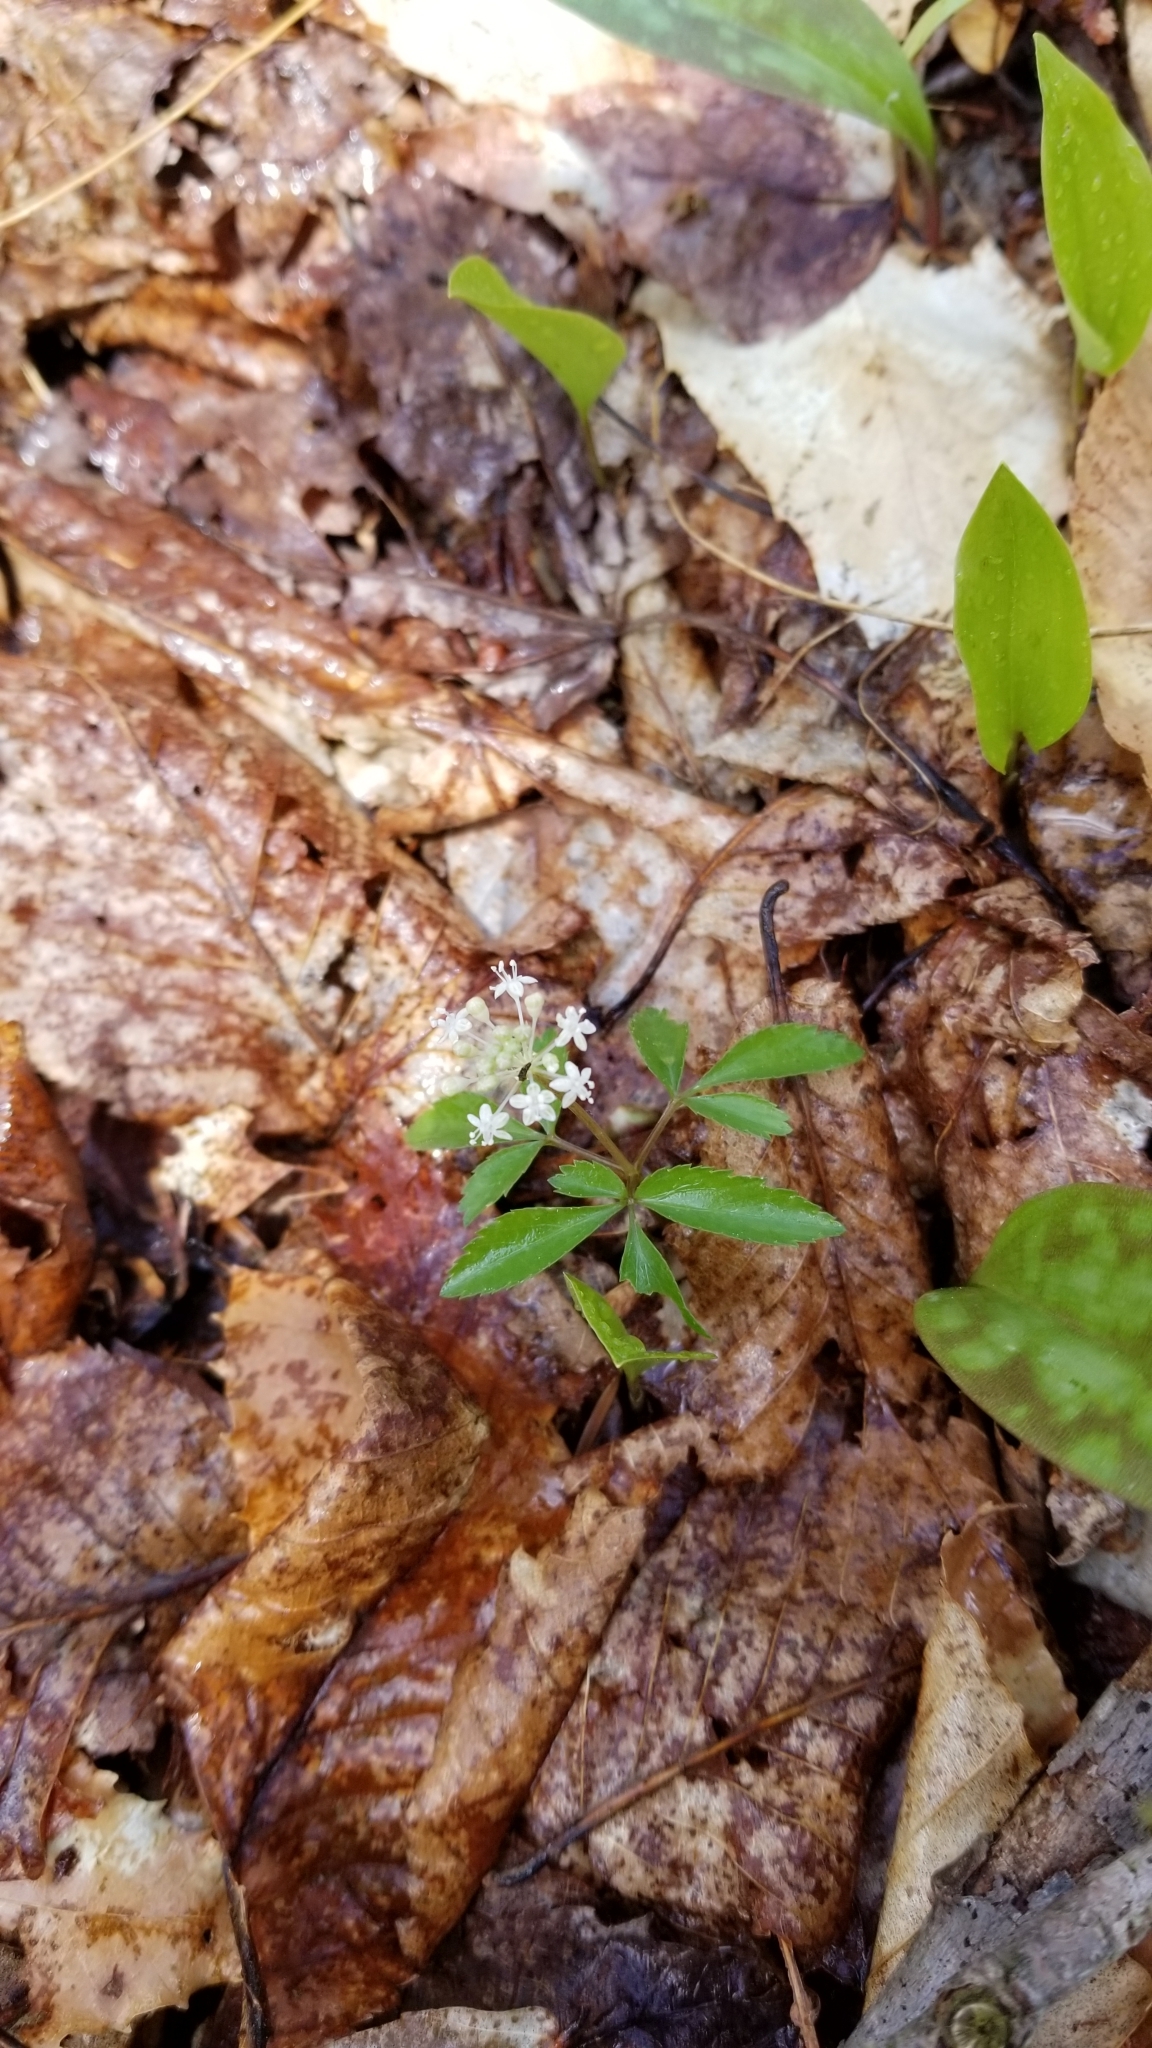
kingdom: Plantae
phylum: Tracheophyta
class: Magnoliopsida
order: Apiales
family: Araliaceae
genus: Panax
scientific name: Panax trifolius
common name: Dwarf ginseng
